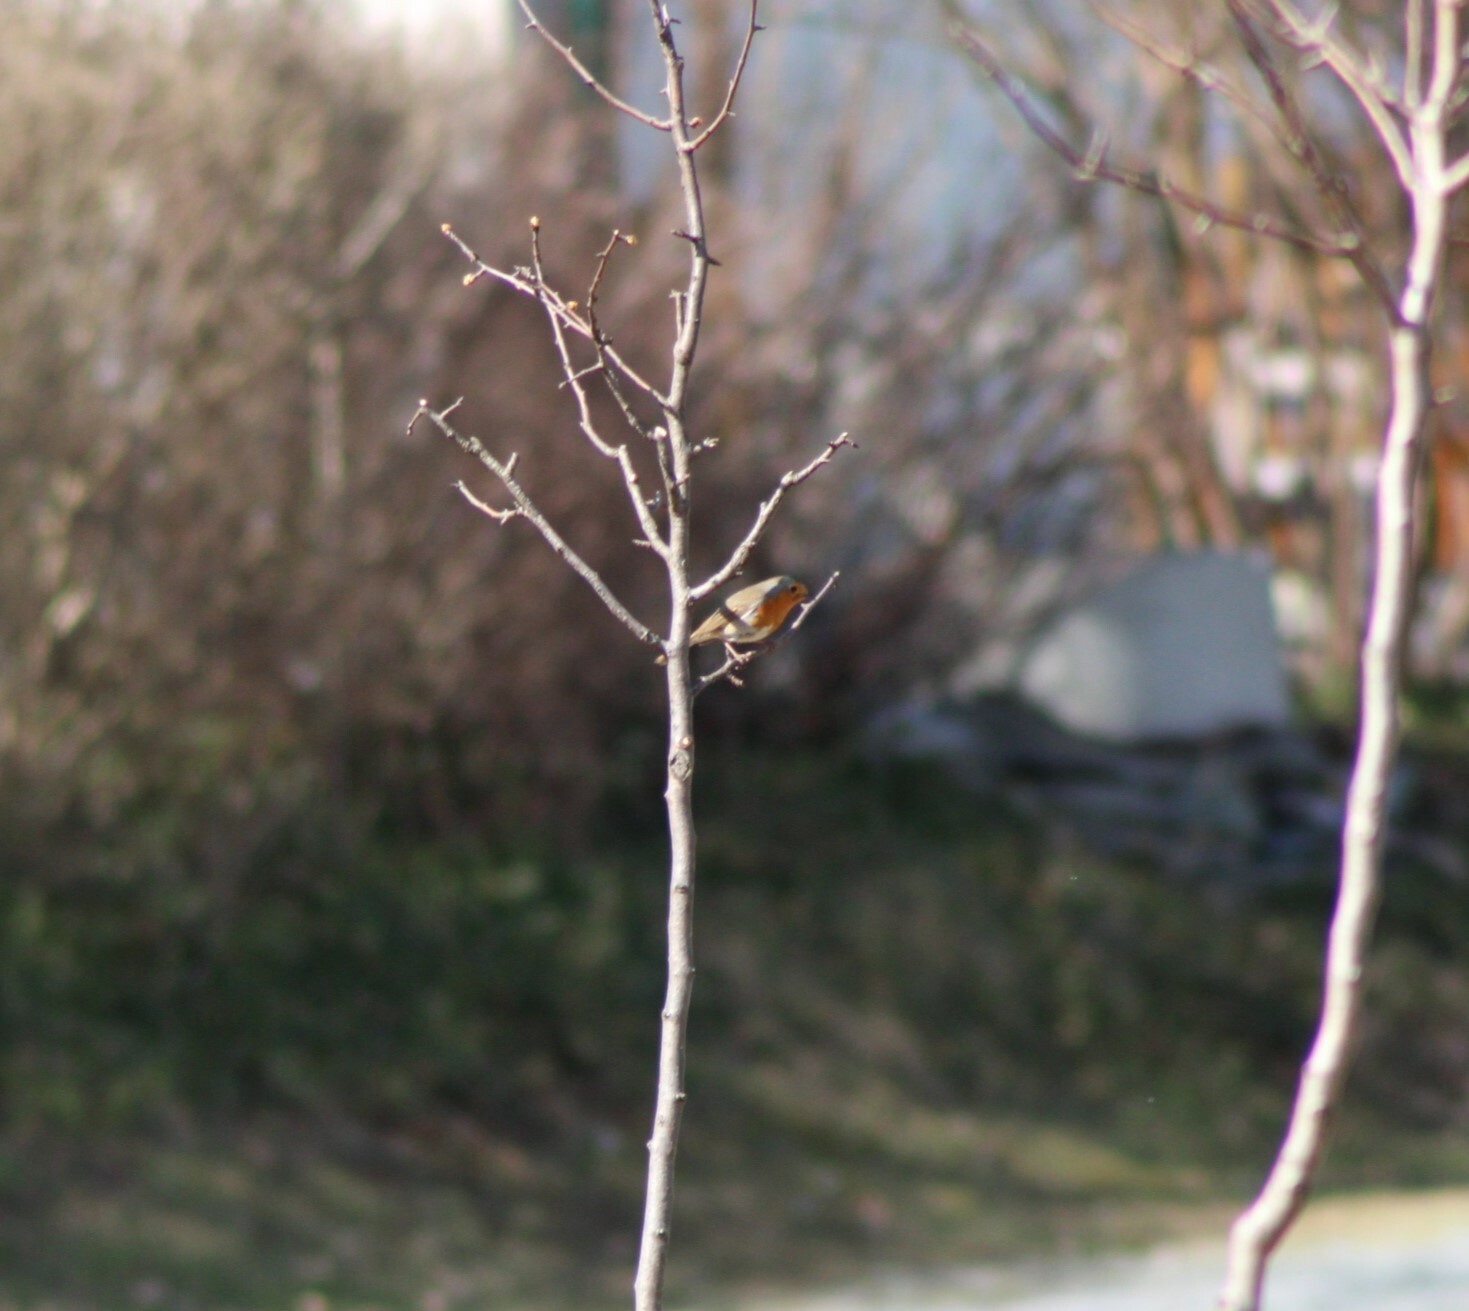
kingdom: Animalia
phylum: Chordata
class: Aves
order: Passeriformes
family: Muscicapidae
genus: Erithacus
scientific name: Erithacus rubecula
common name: European robin
